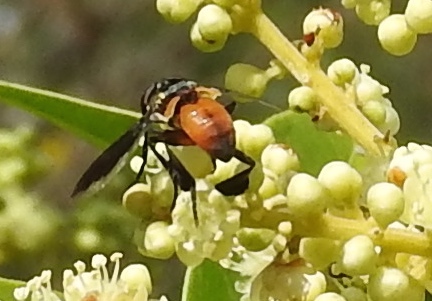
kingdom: Animalia
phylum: Arthropoda
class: Insecta
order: Diptera
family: Tachinidae
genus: Trichopoda
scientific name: Trichopoda
